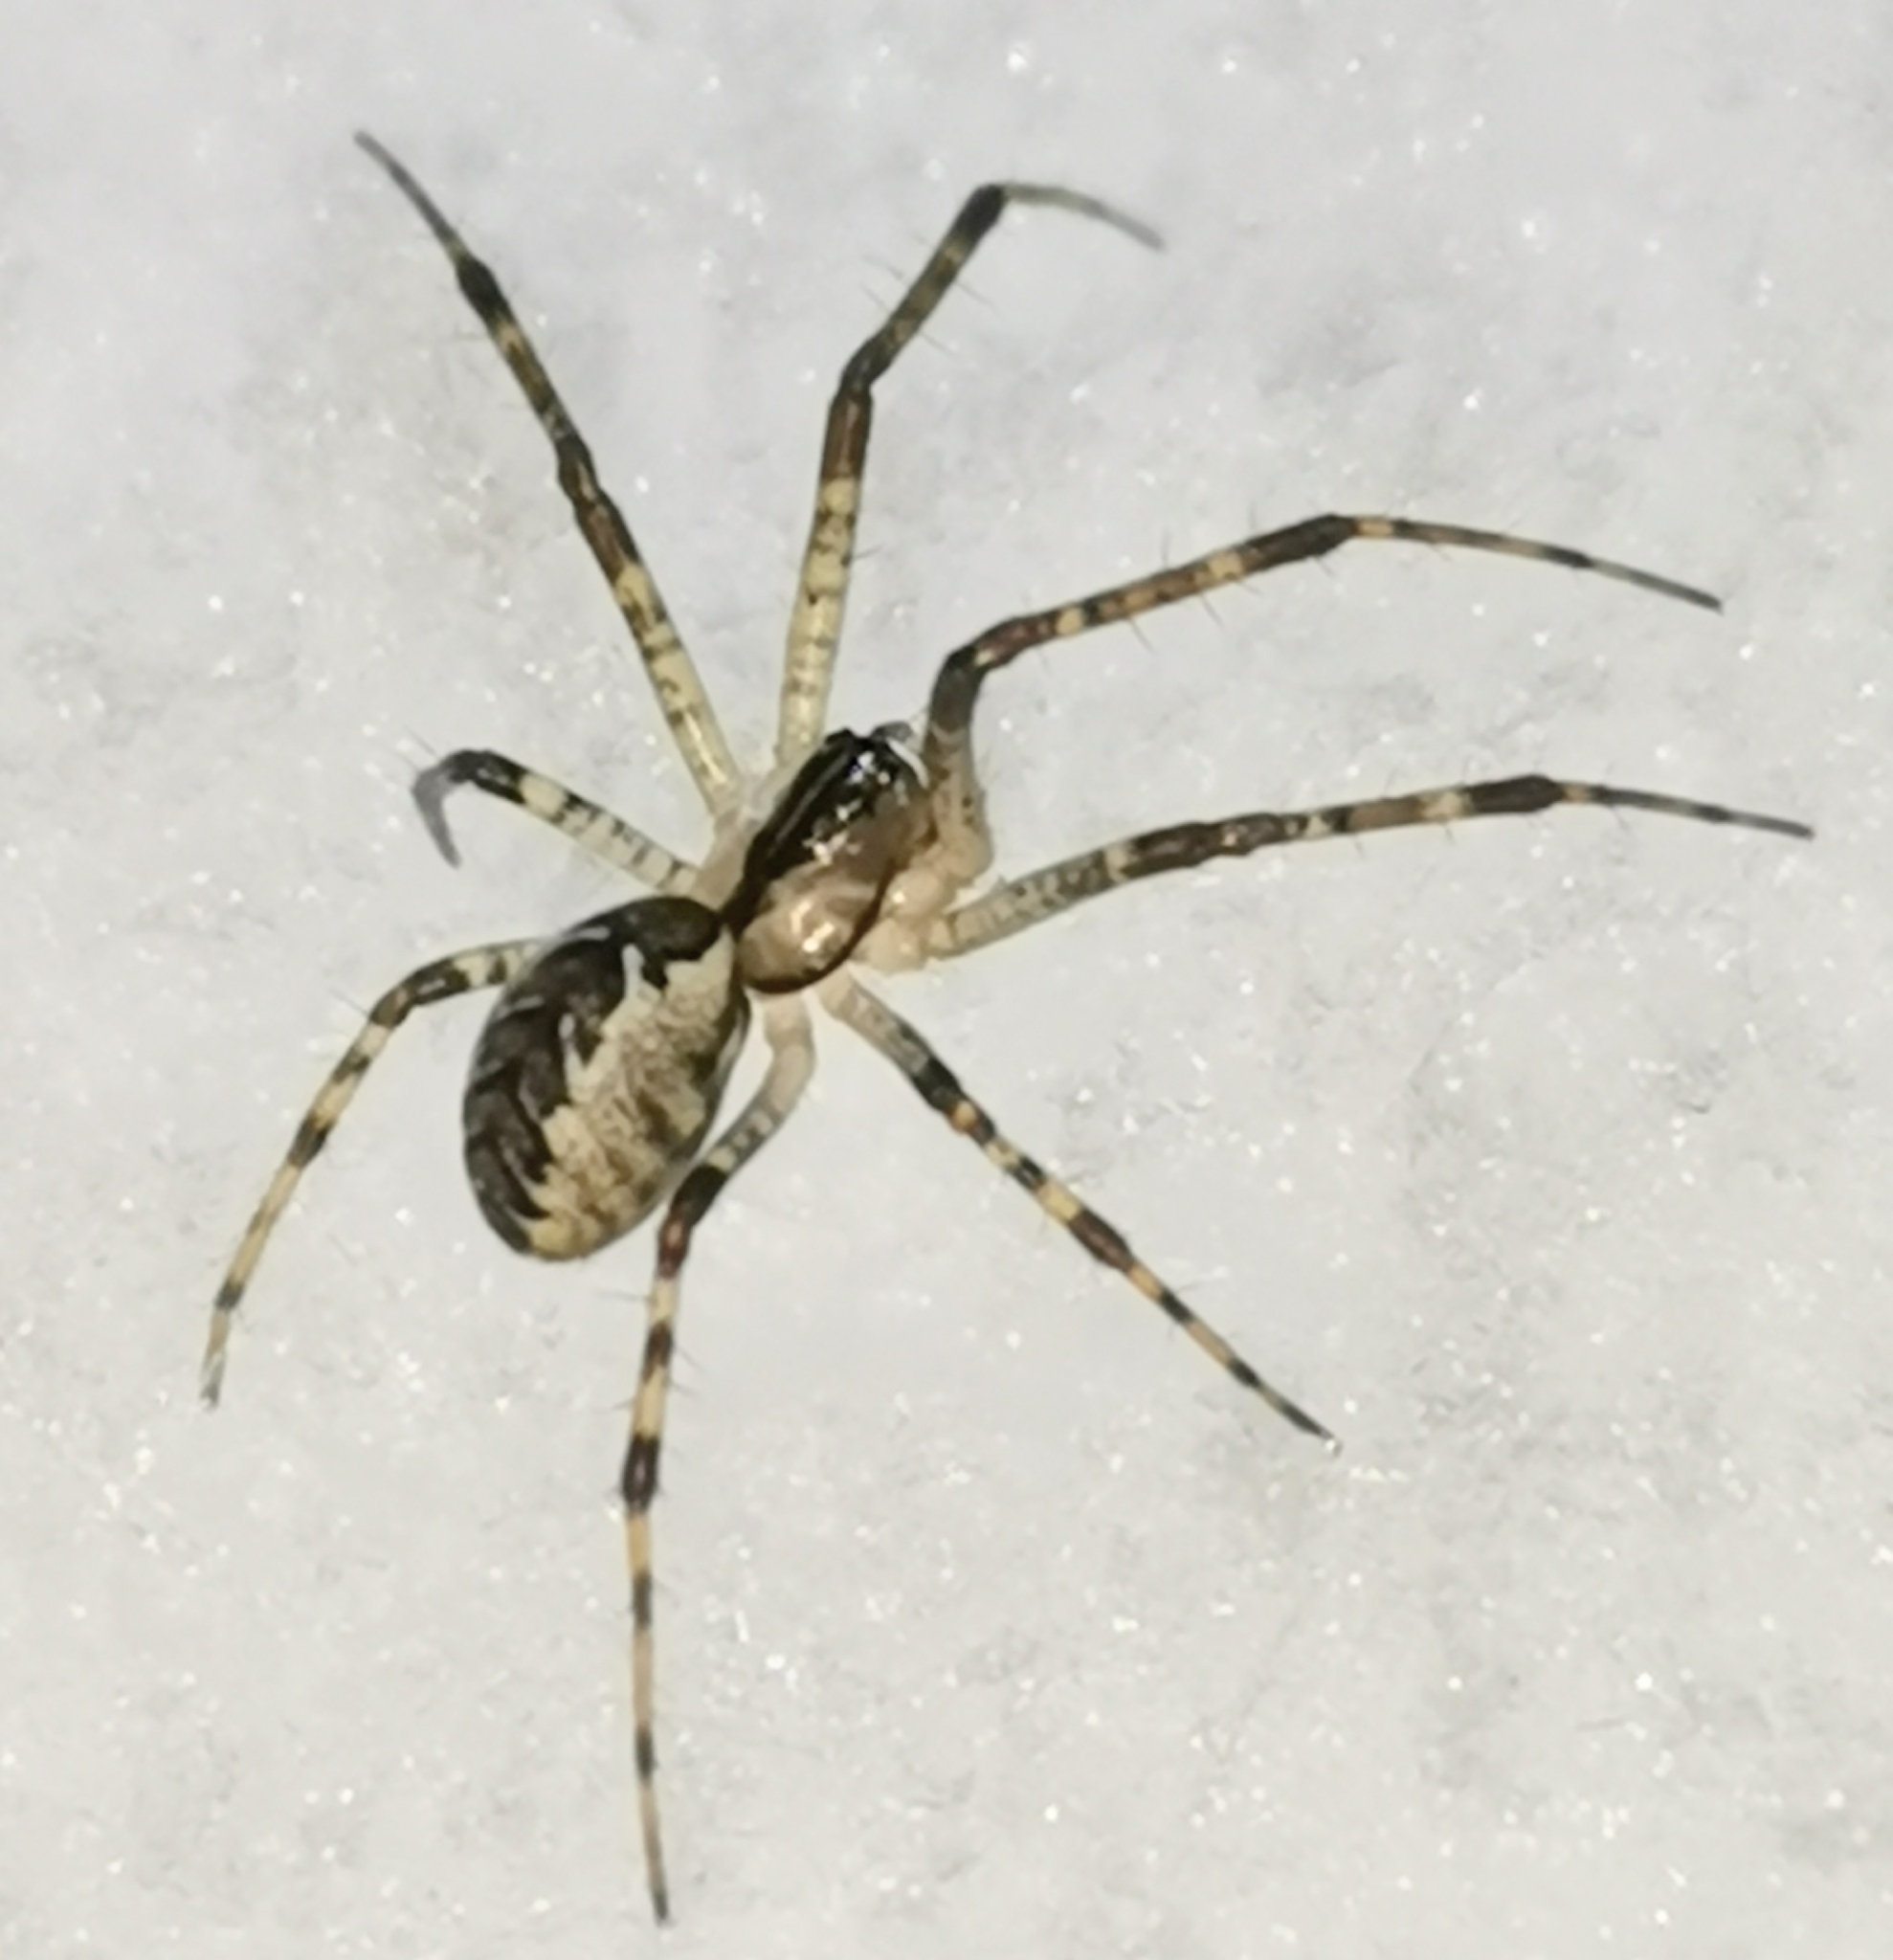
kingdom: Animalia
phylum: Arthropoda
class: Arachnida
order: Araneae
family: Linyphiidae
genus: Pityohyphantes
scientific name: Pityohyphantes phrygianus
